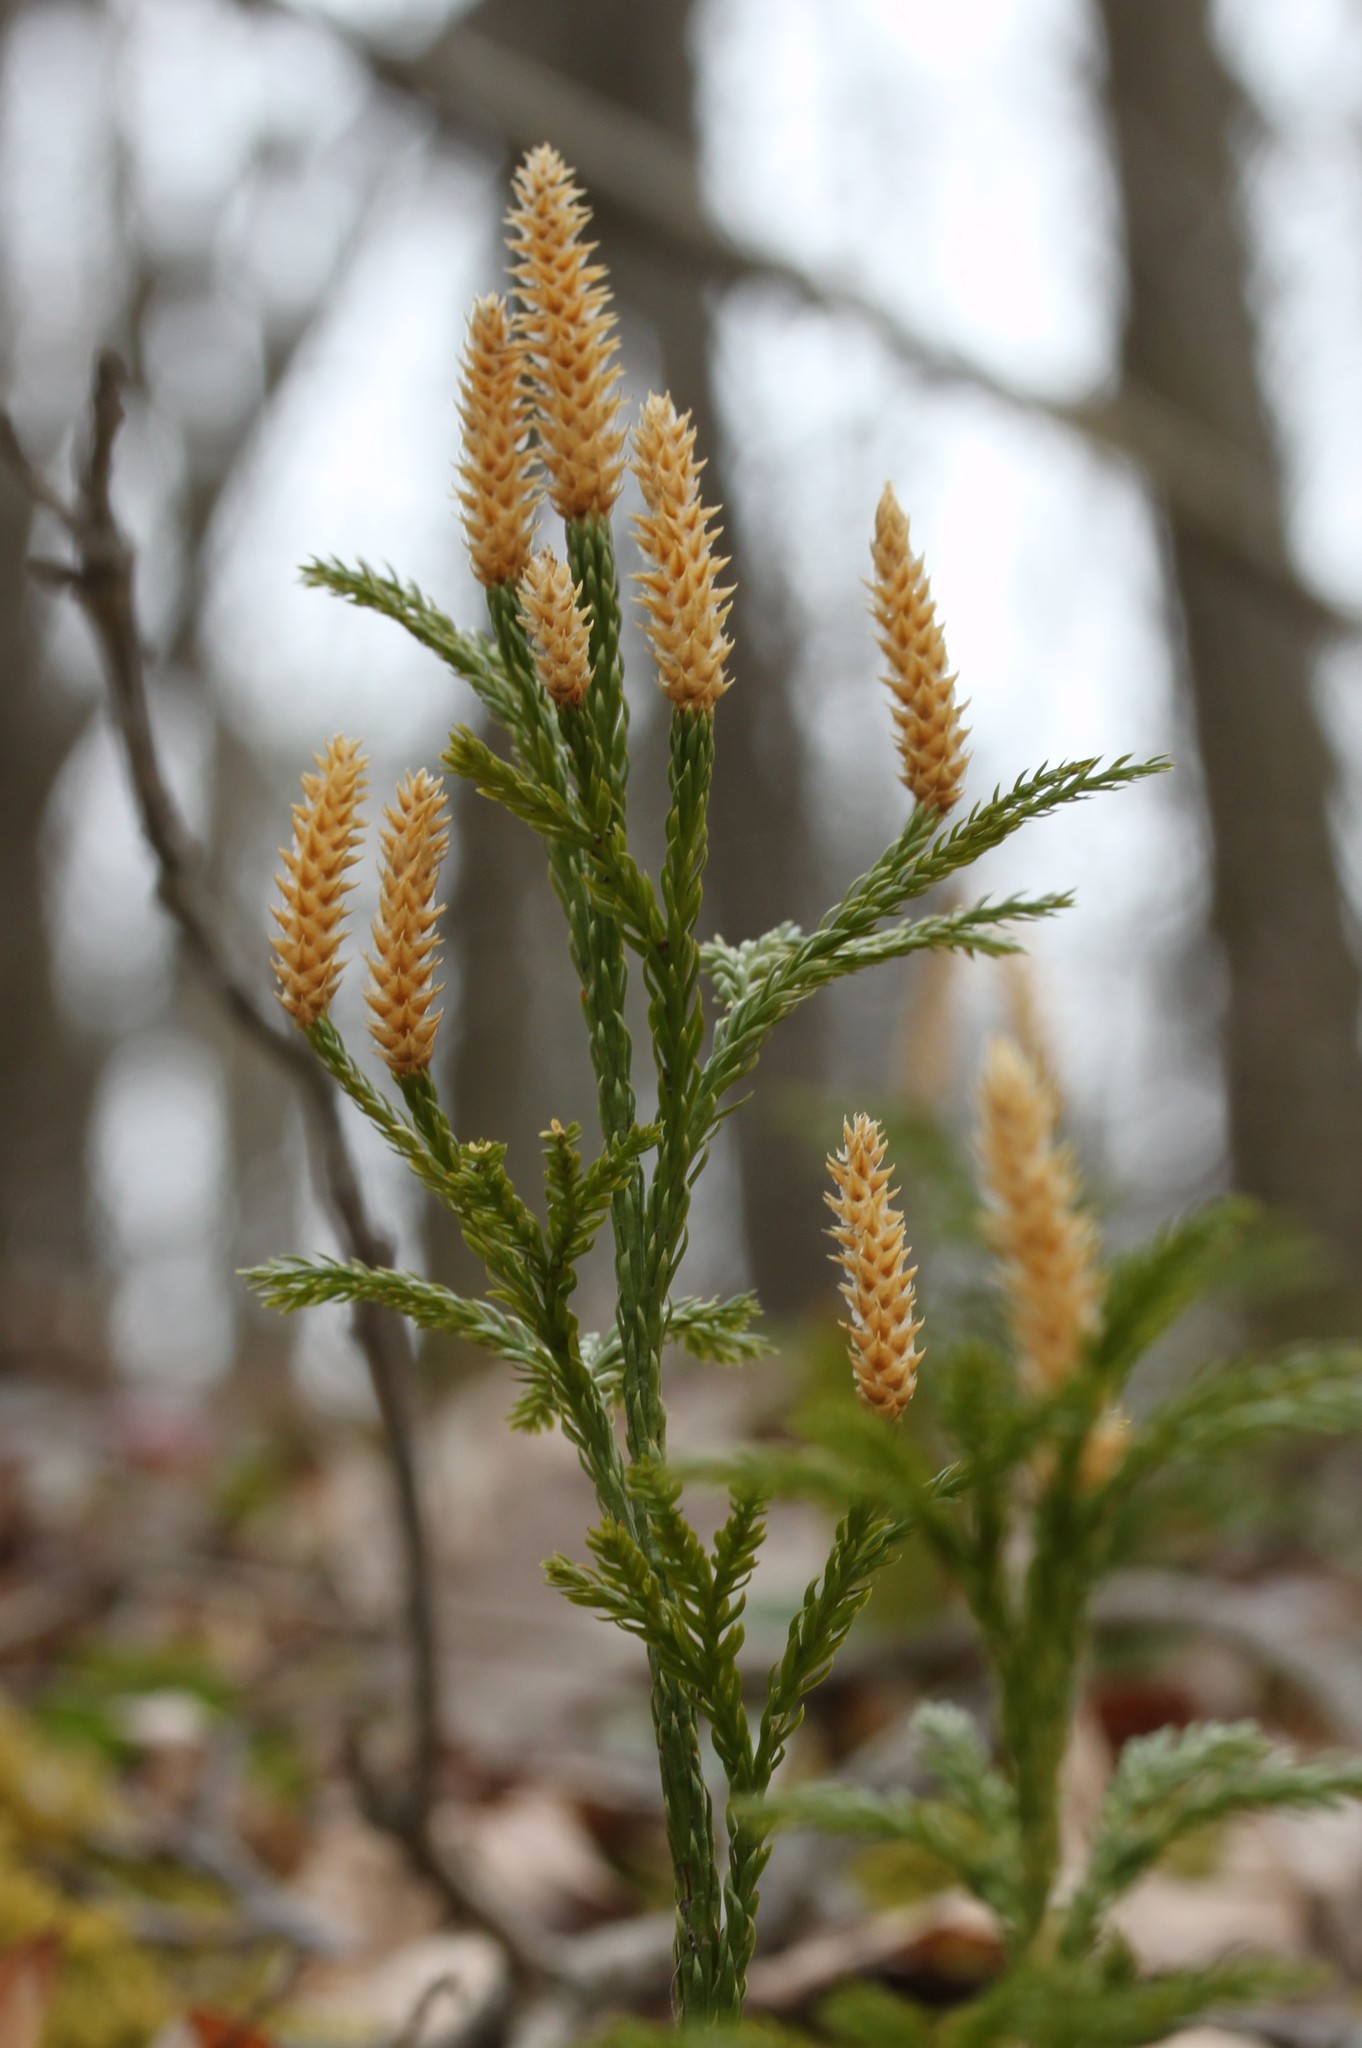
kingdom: Plantae
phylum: Tracheophyta
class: Lycopodiopsida
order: Lycopodiales
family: Lycopodiaceae
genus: Dendrolycopodium
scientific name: Dendrolycopodium obscurum
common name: Common ground-pine
